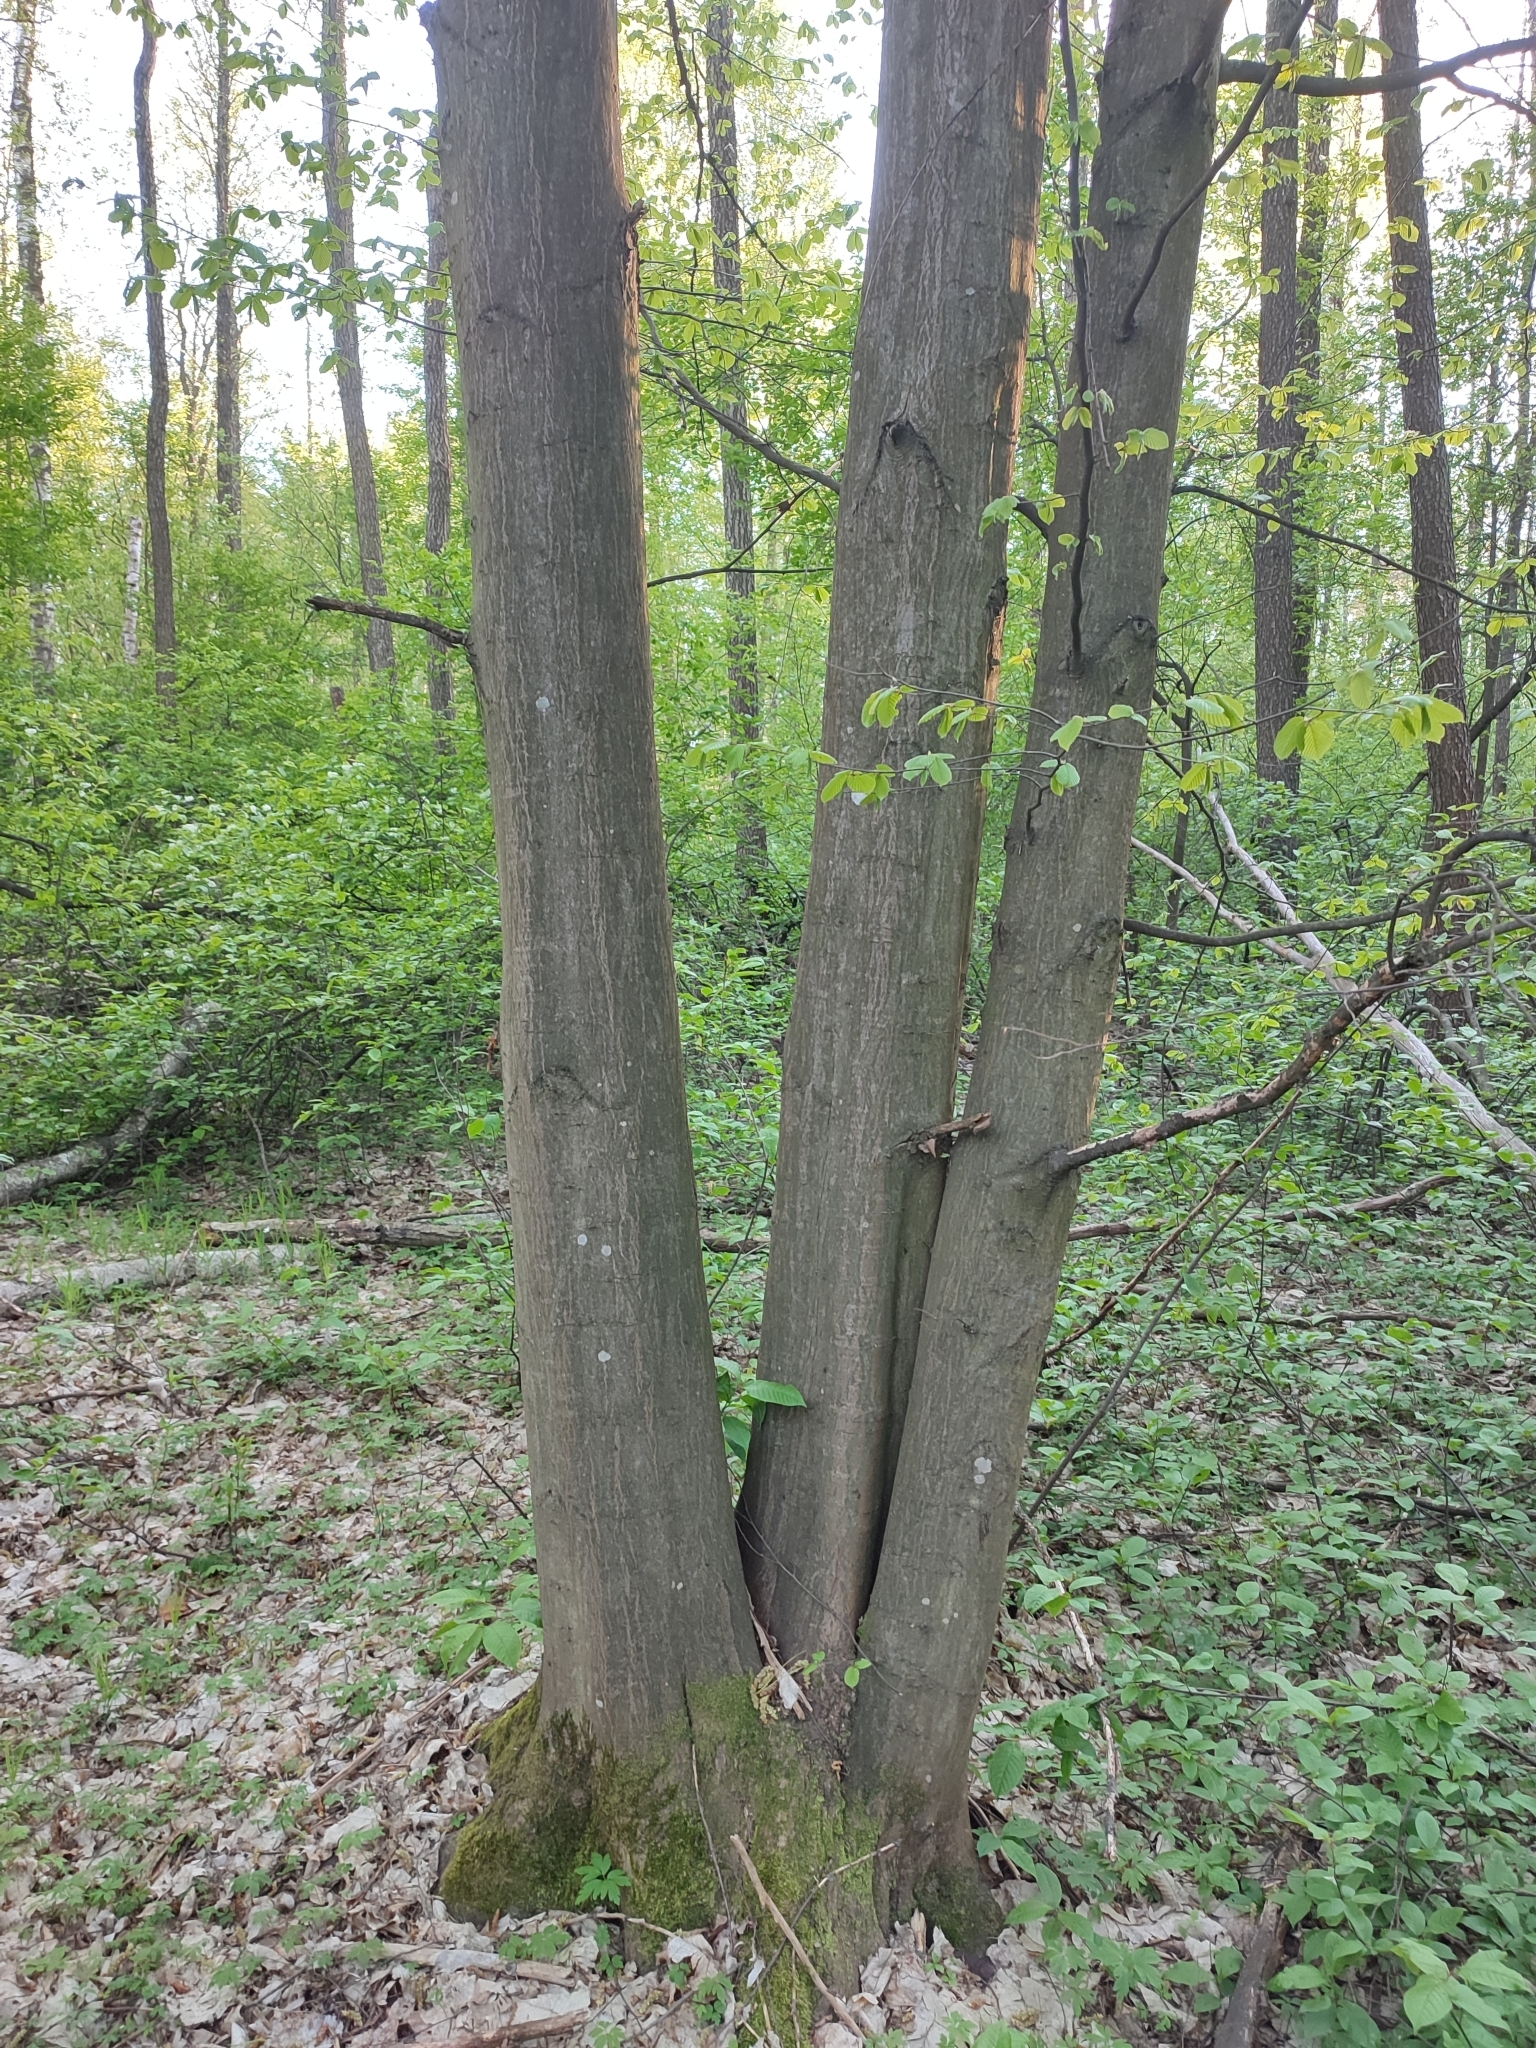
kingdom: Plantae
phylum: Tracheophyta
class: Magnoliopsida
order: Fagales
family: Betulaceae
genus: Carpinus
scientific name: Carpinus betulus
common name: Hornbeam
